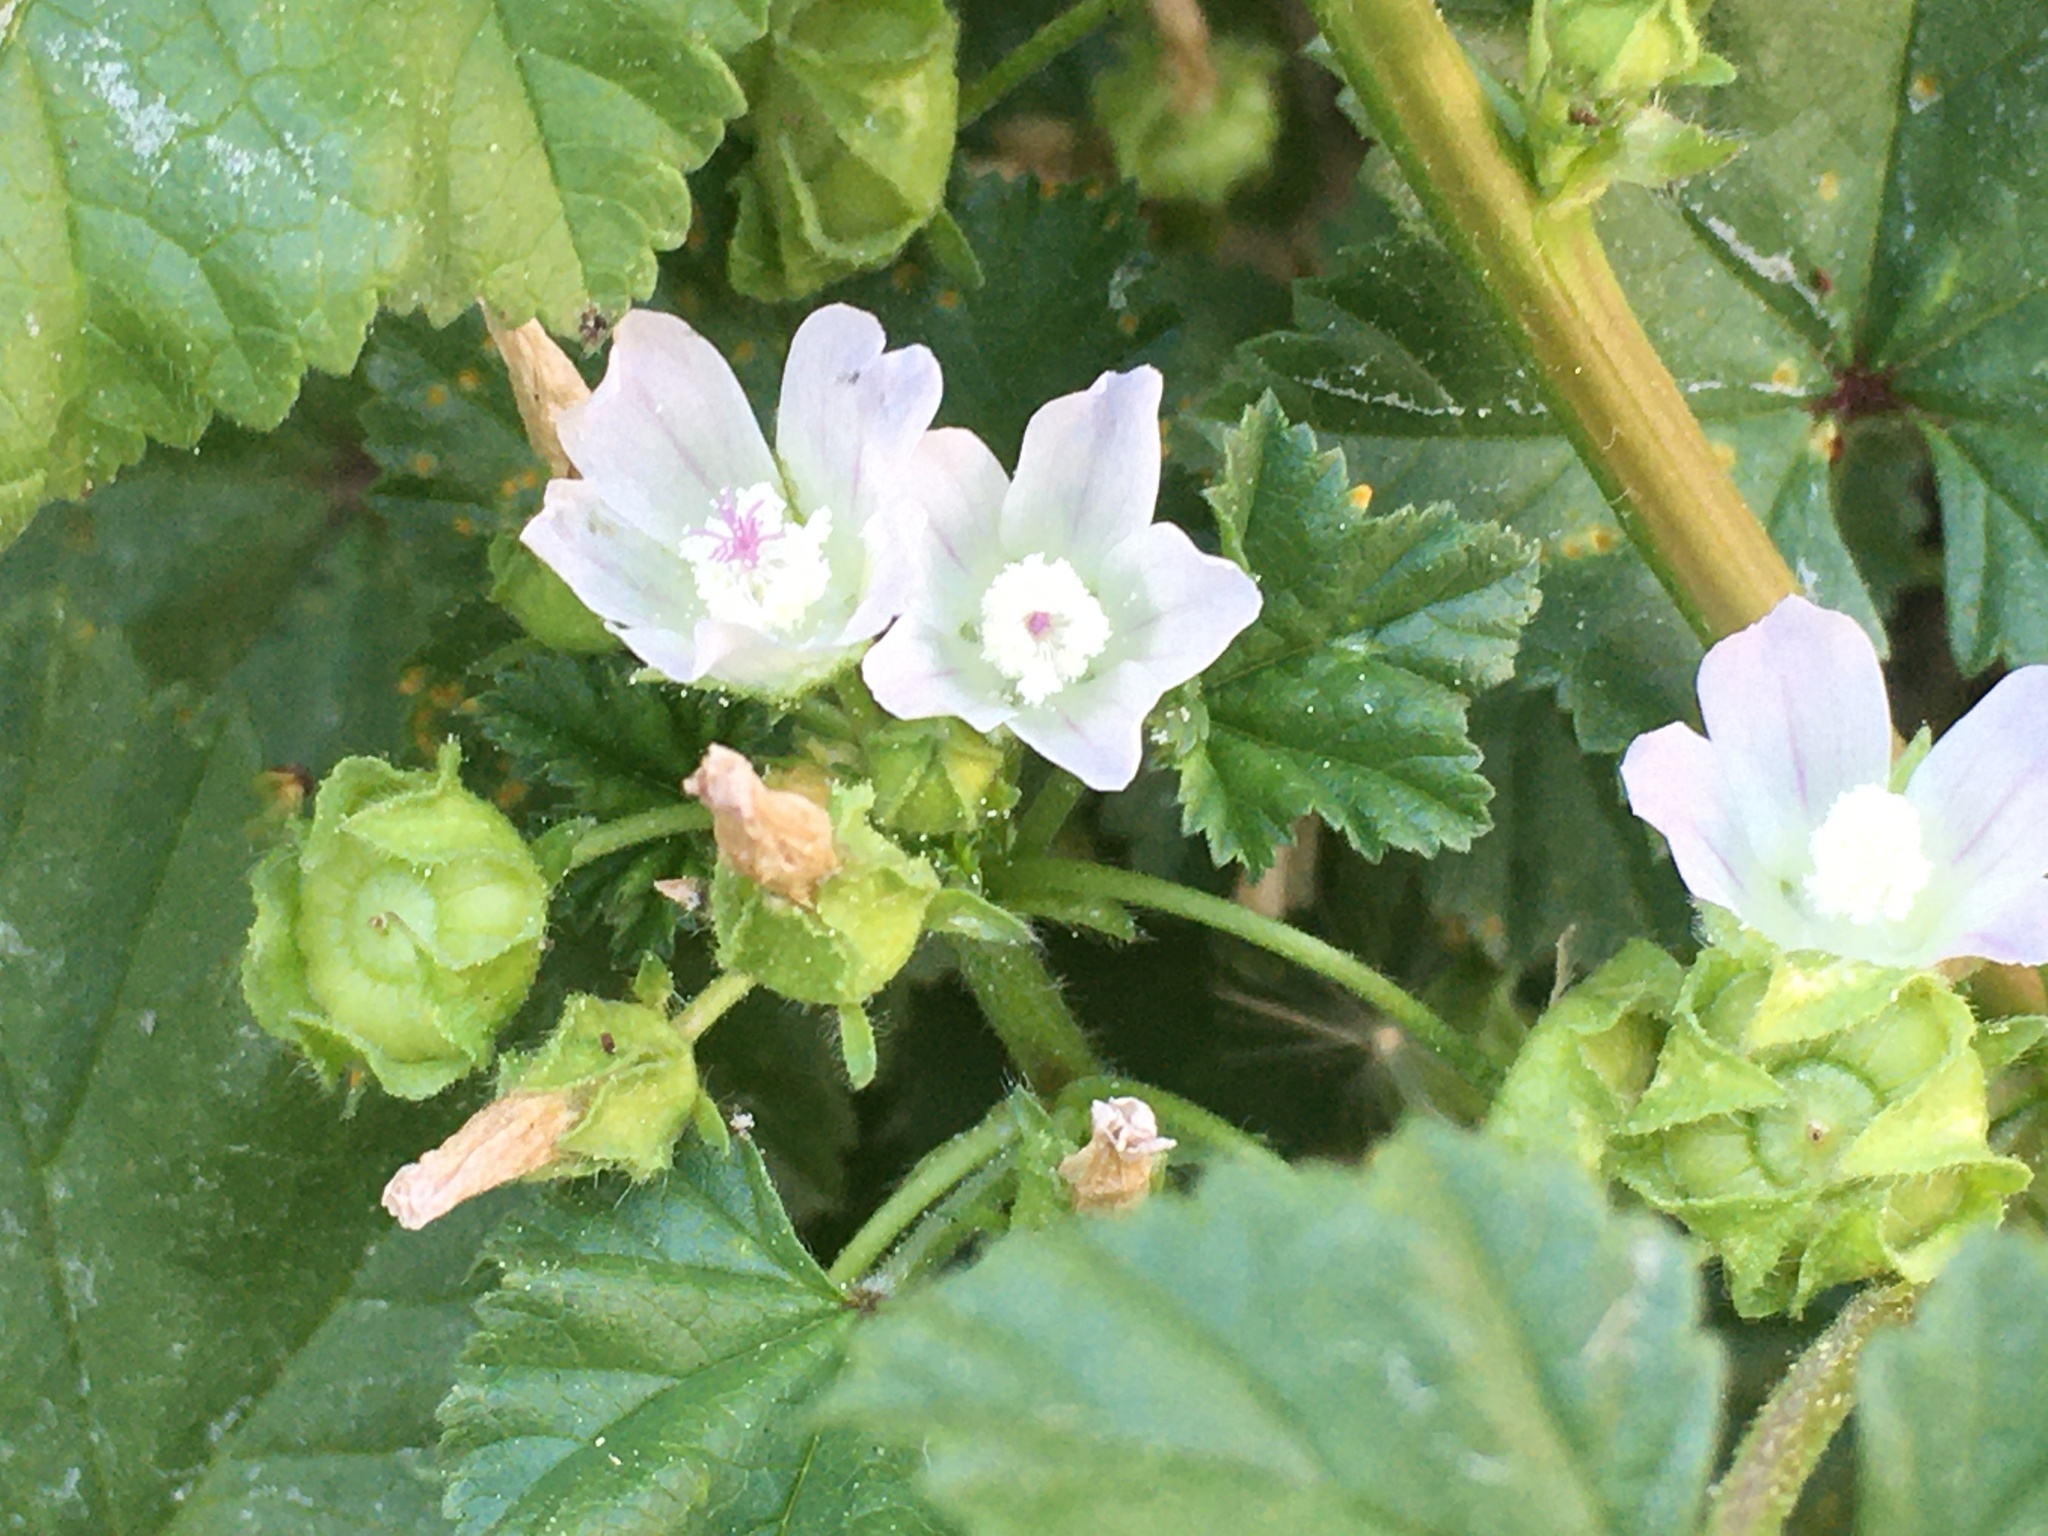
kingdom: Plantae
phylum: Tracheophyta
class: Magnoliopsida
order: Malvales
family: Malvaceae
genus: Malva
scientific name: Malva neglecta
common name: Common mallow
